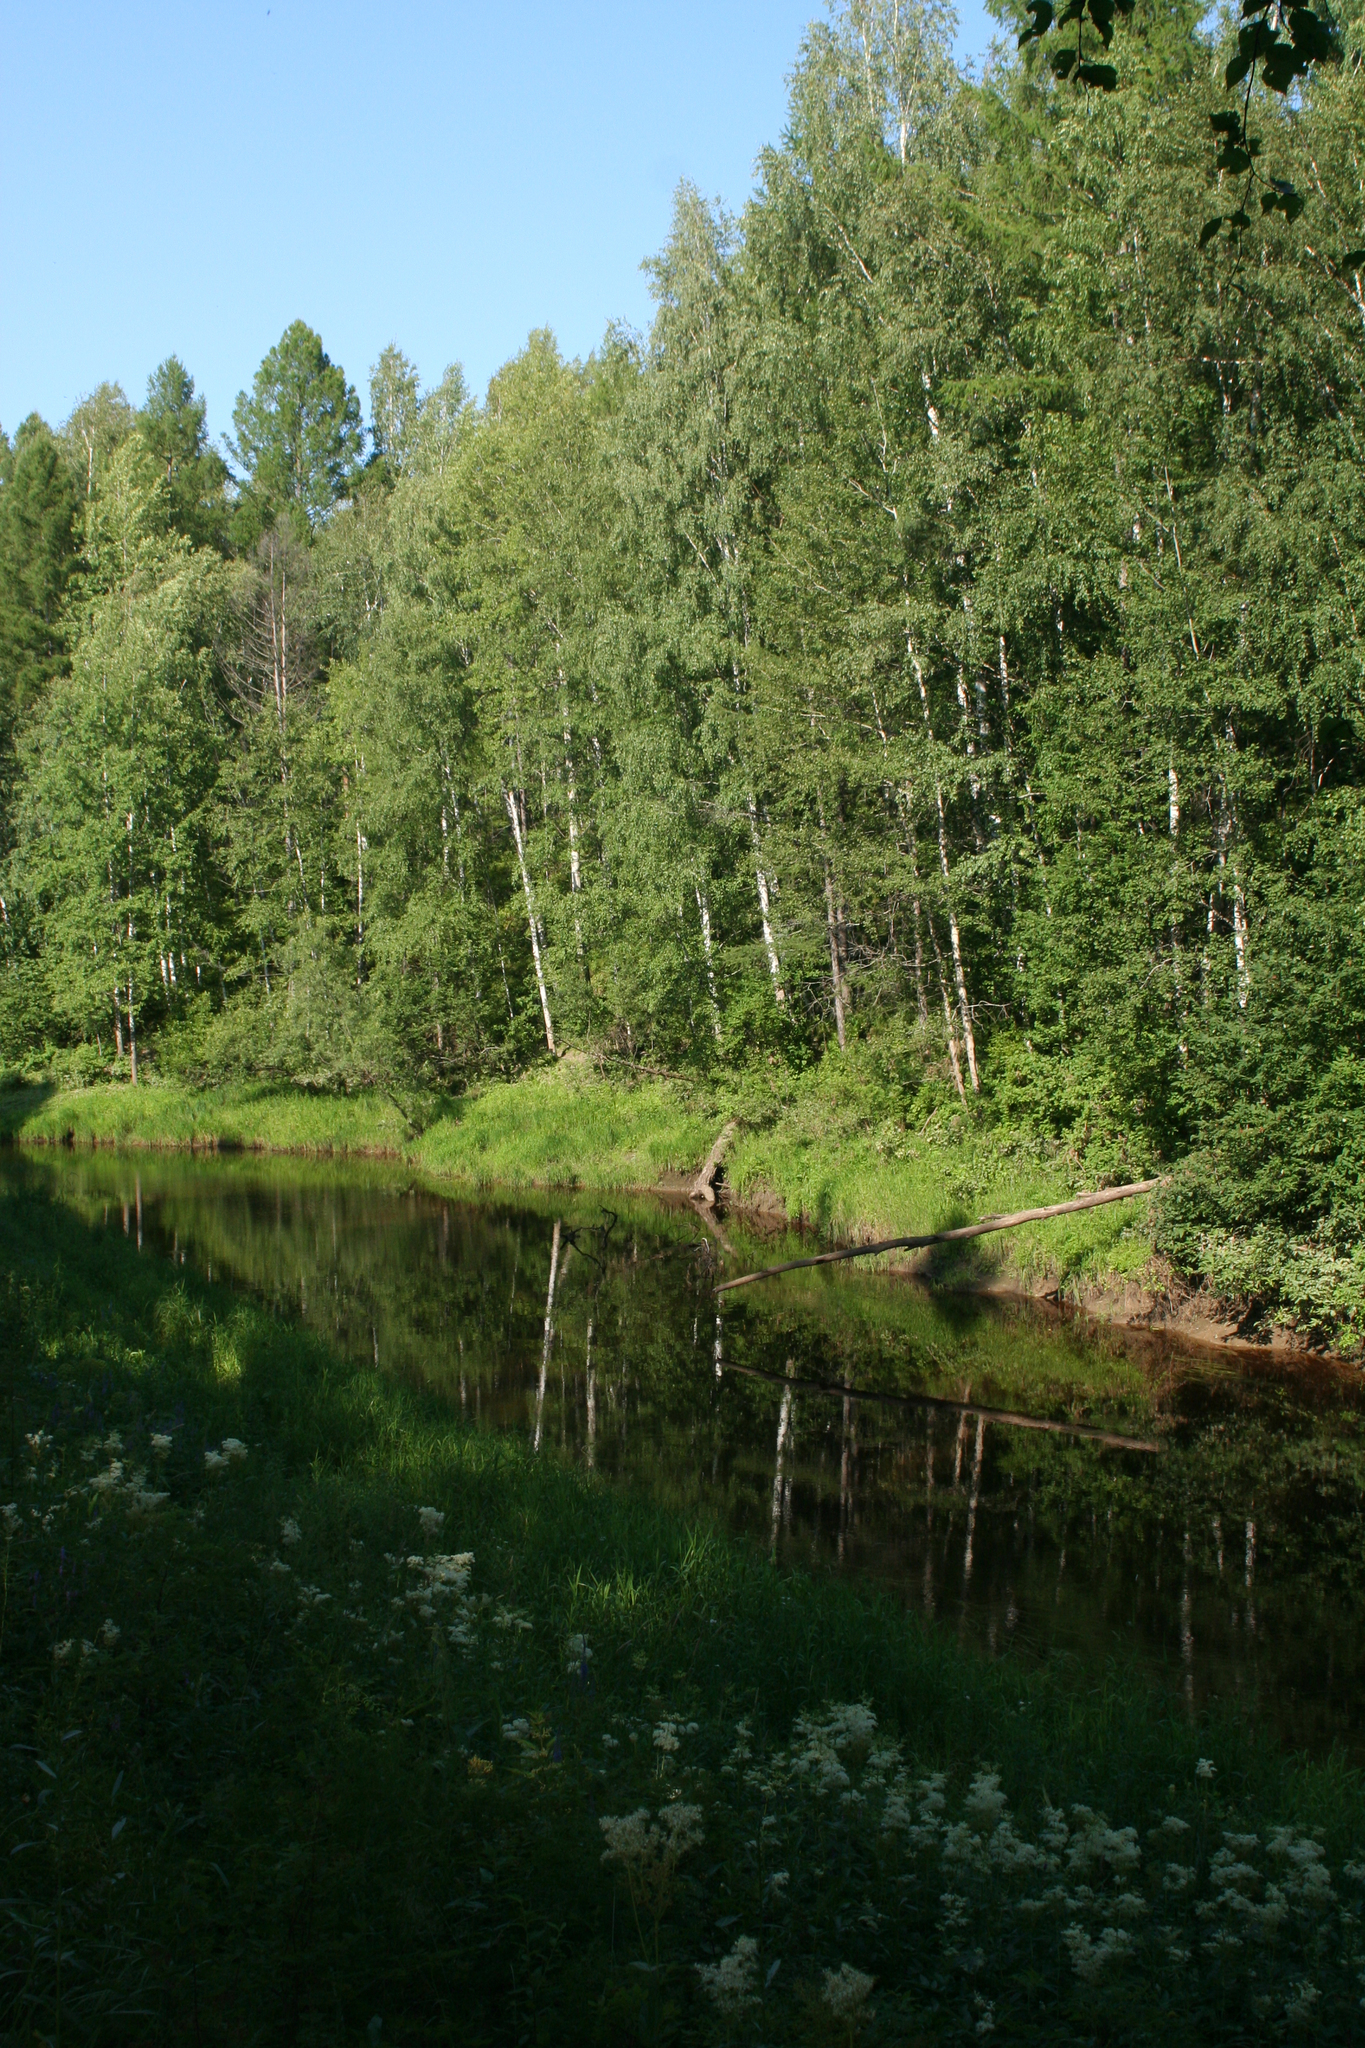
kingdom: Plantae
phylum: Tracheophyta
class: Magnoliopsida
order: Rosales
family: Rosaceae
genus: Filipendula
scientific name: Filipendula ulmaria
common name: Meadowsweet
